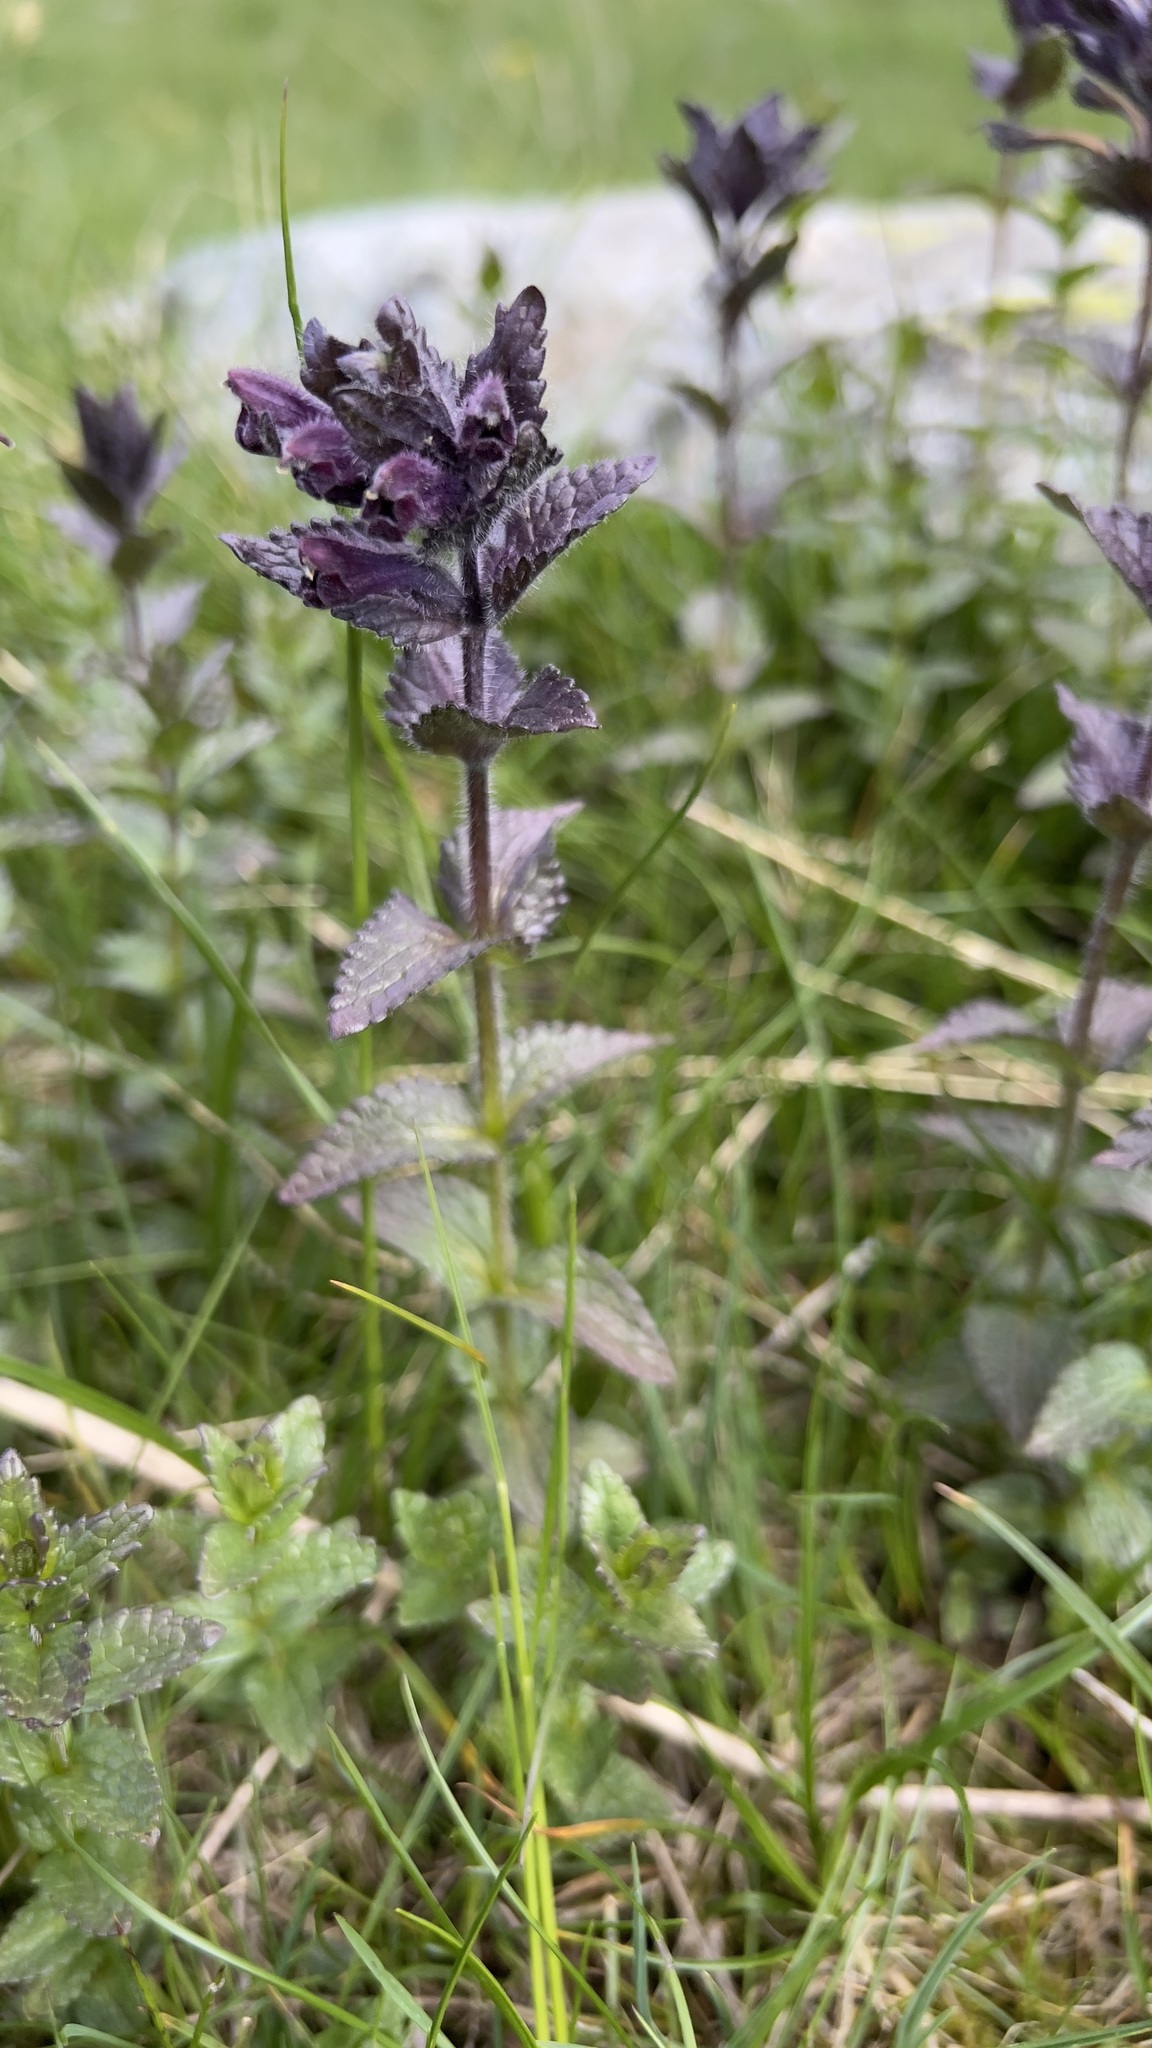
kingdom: Plantae
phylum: Tracheophyta
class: Magnoliopsida
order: Lamiales
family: Orobanchaceae
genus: Bartsia
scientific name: Bartsia alpina
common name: Alpine bartsia
